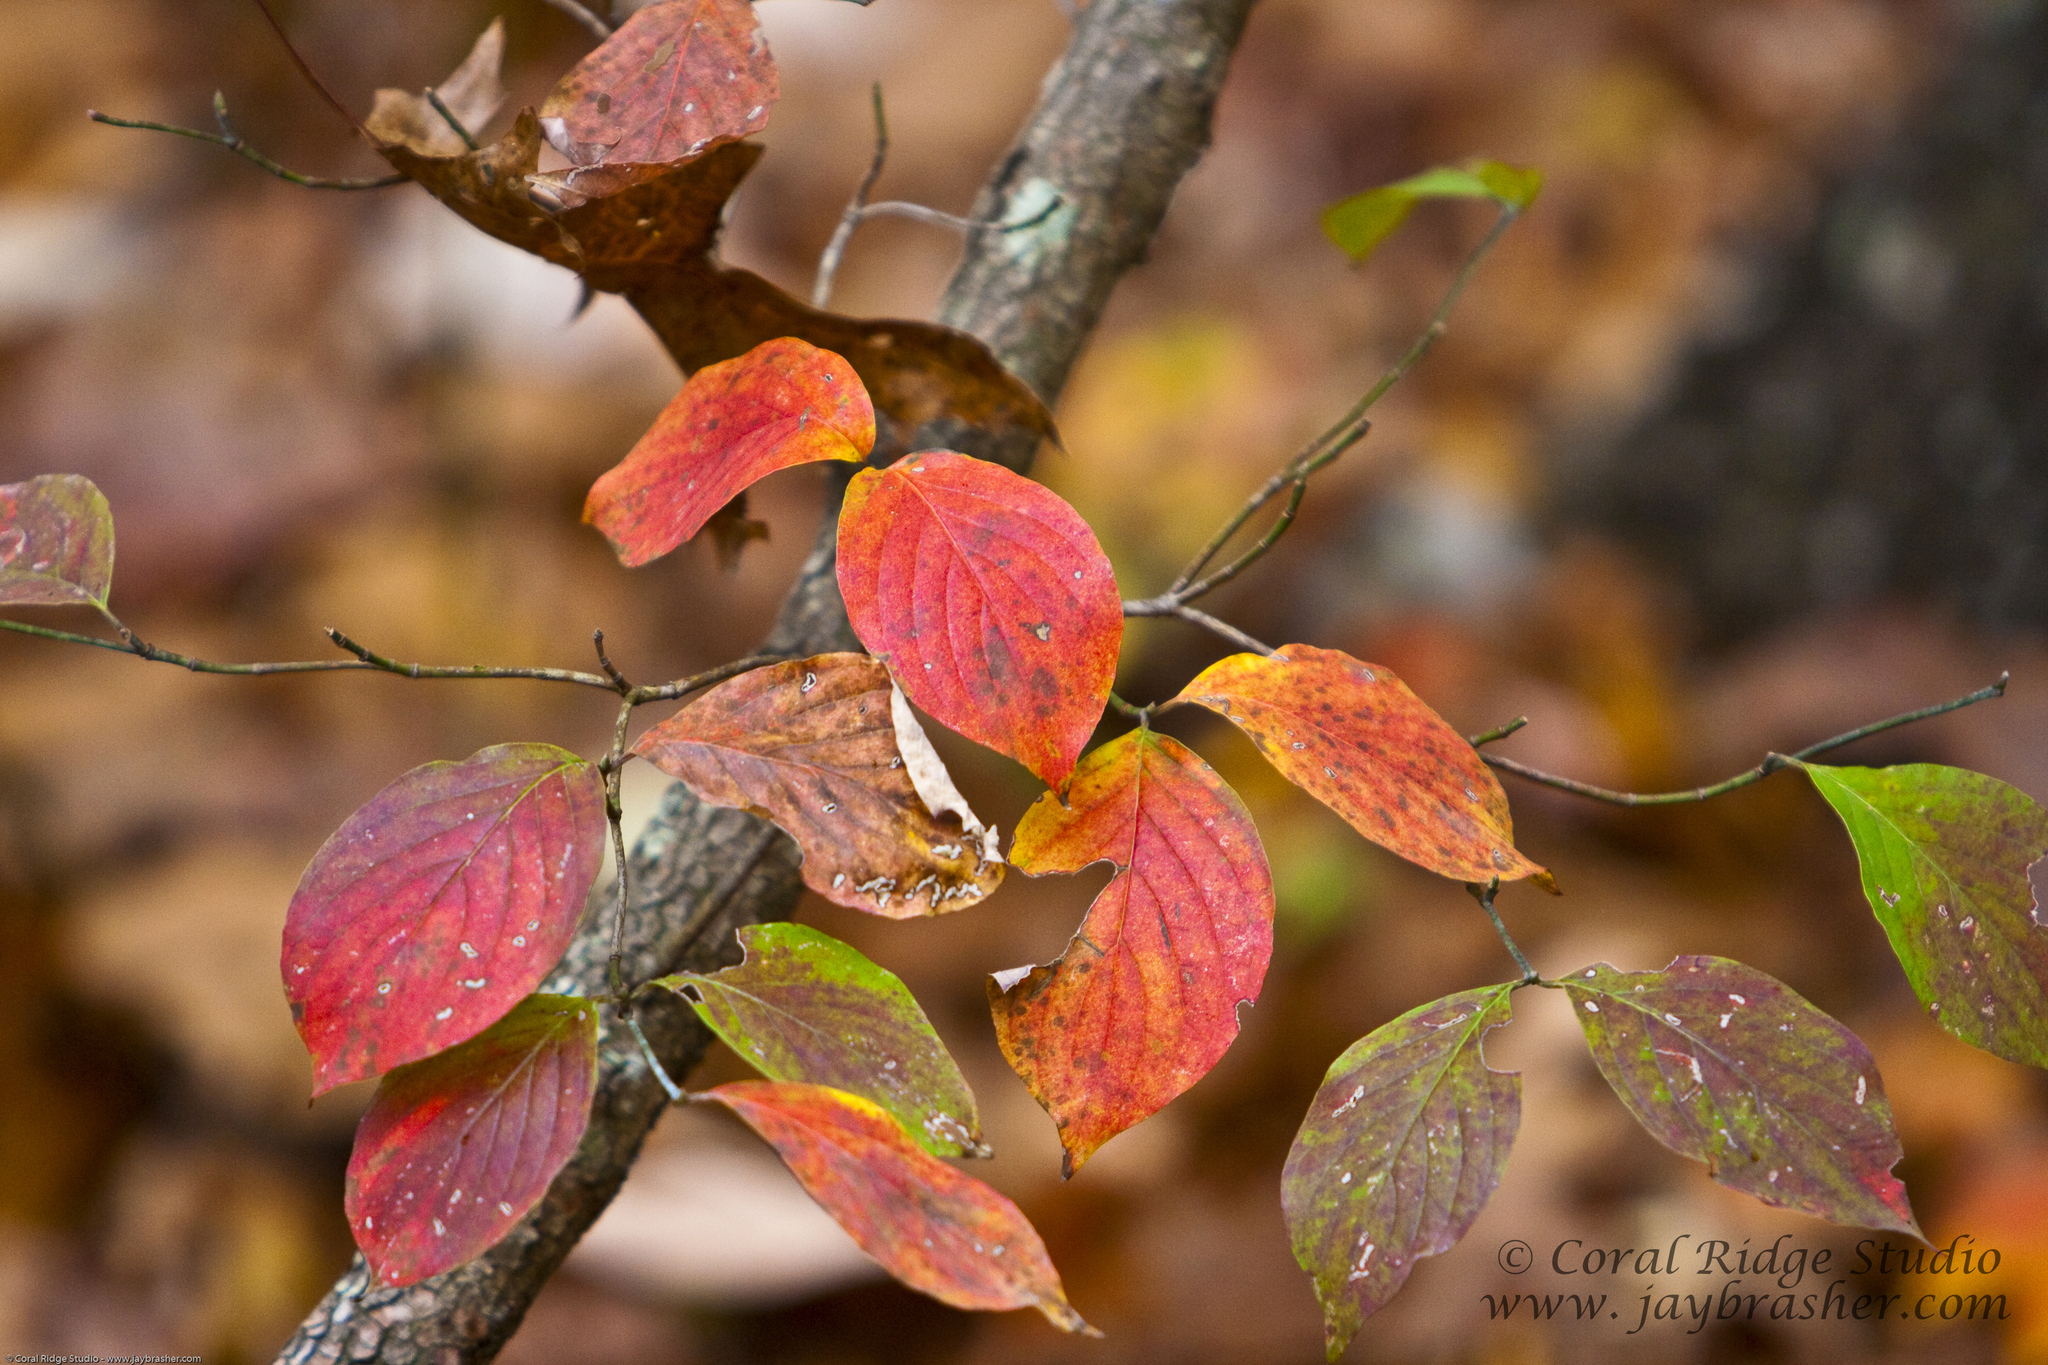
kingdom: Plantae
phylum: Tracheophyta
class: Magnoliopsida
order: Cornales
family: Cornaceae
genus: Cornus
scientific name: Cornus florida
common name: Flowering dogwood
